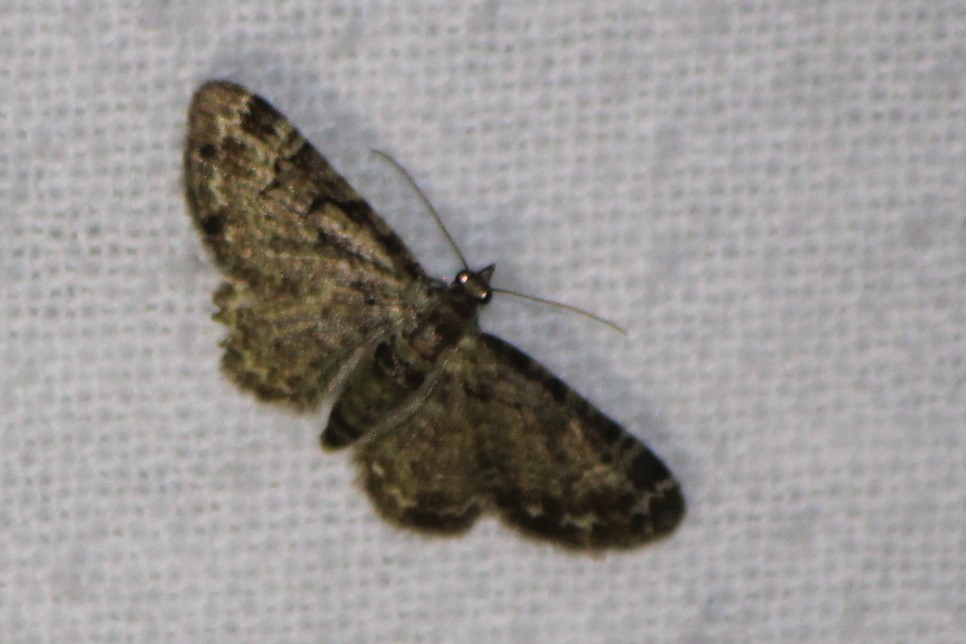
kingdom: Animalia
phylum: Arthropoda
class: Insecta
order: Lepidoptera
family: Geometridae
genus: Pasiphila
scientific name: Pasiphila rectangulata
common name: Green pug
